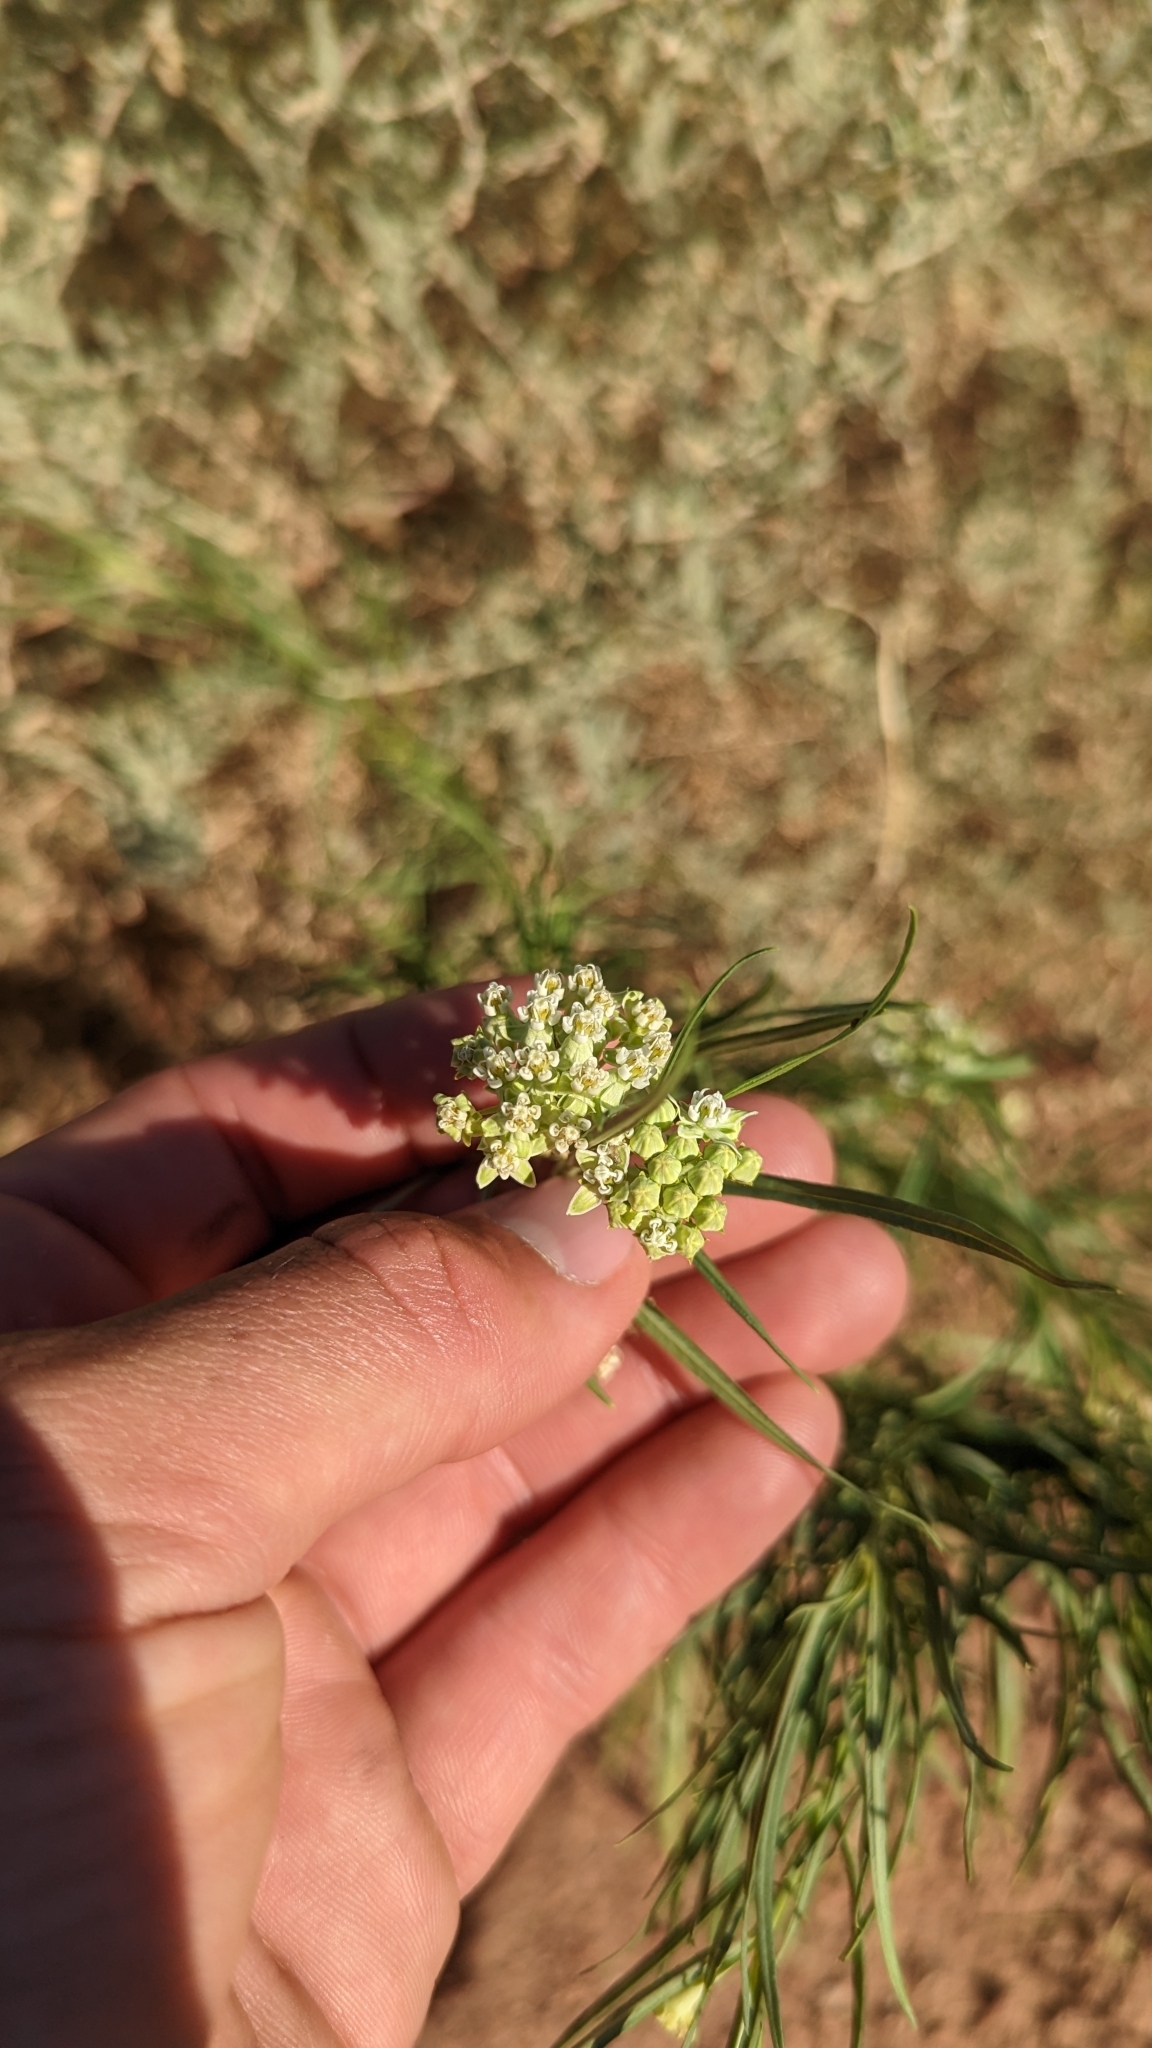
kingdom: Plantae
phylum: Tracheophyta
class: Magnoliopsida
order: Gentianales
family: Apocynaceae
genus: Asclepias
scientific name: Asclepias subverticillata
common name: Horsetail milkweed
